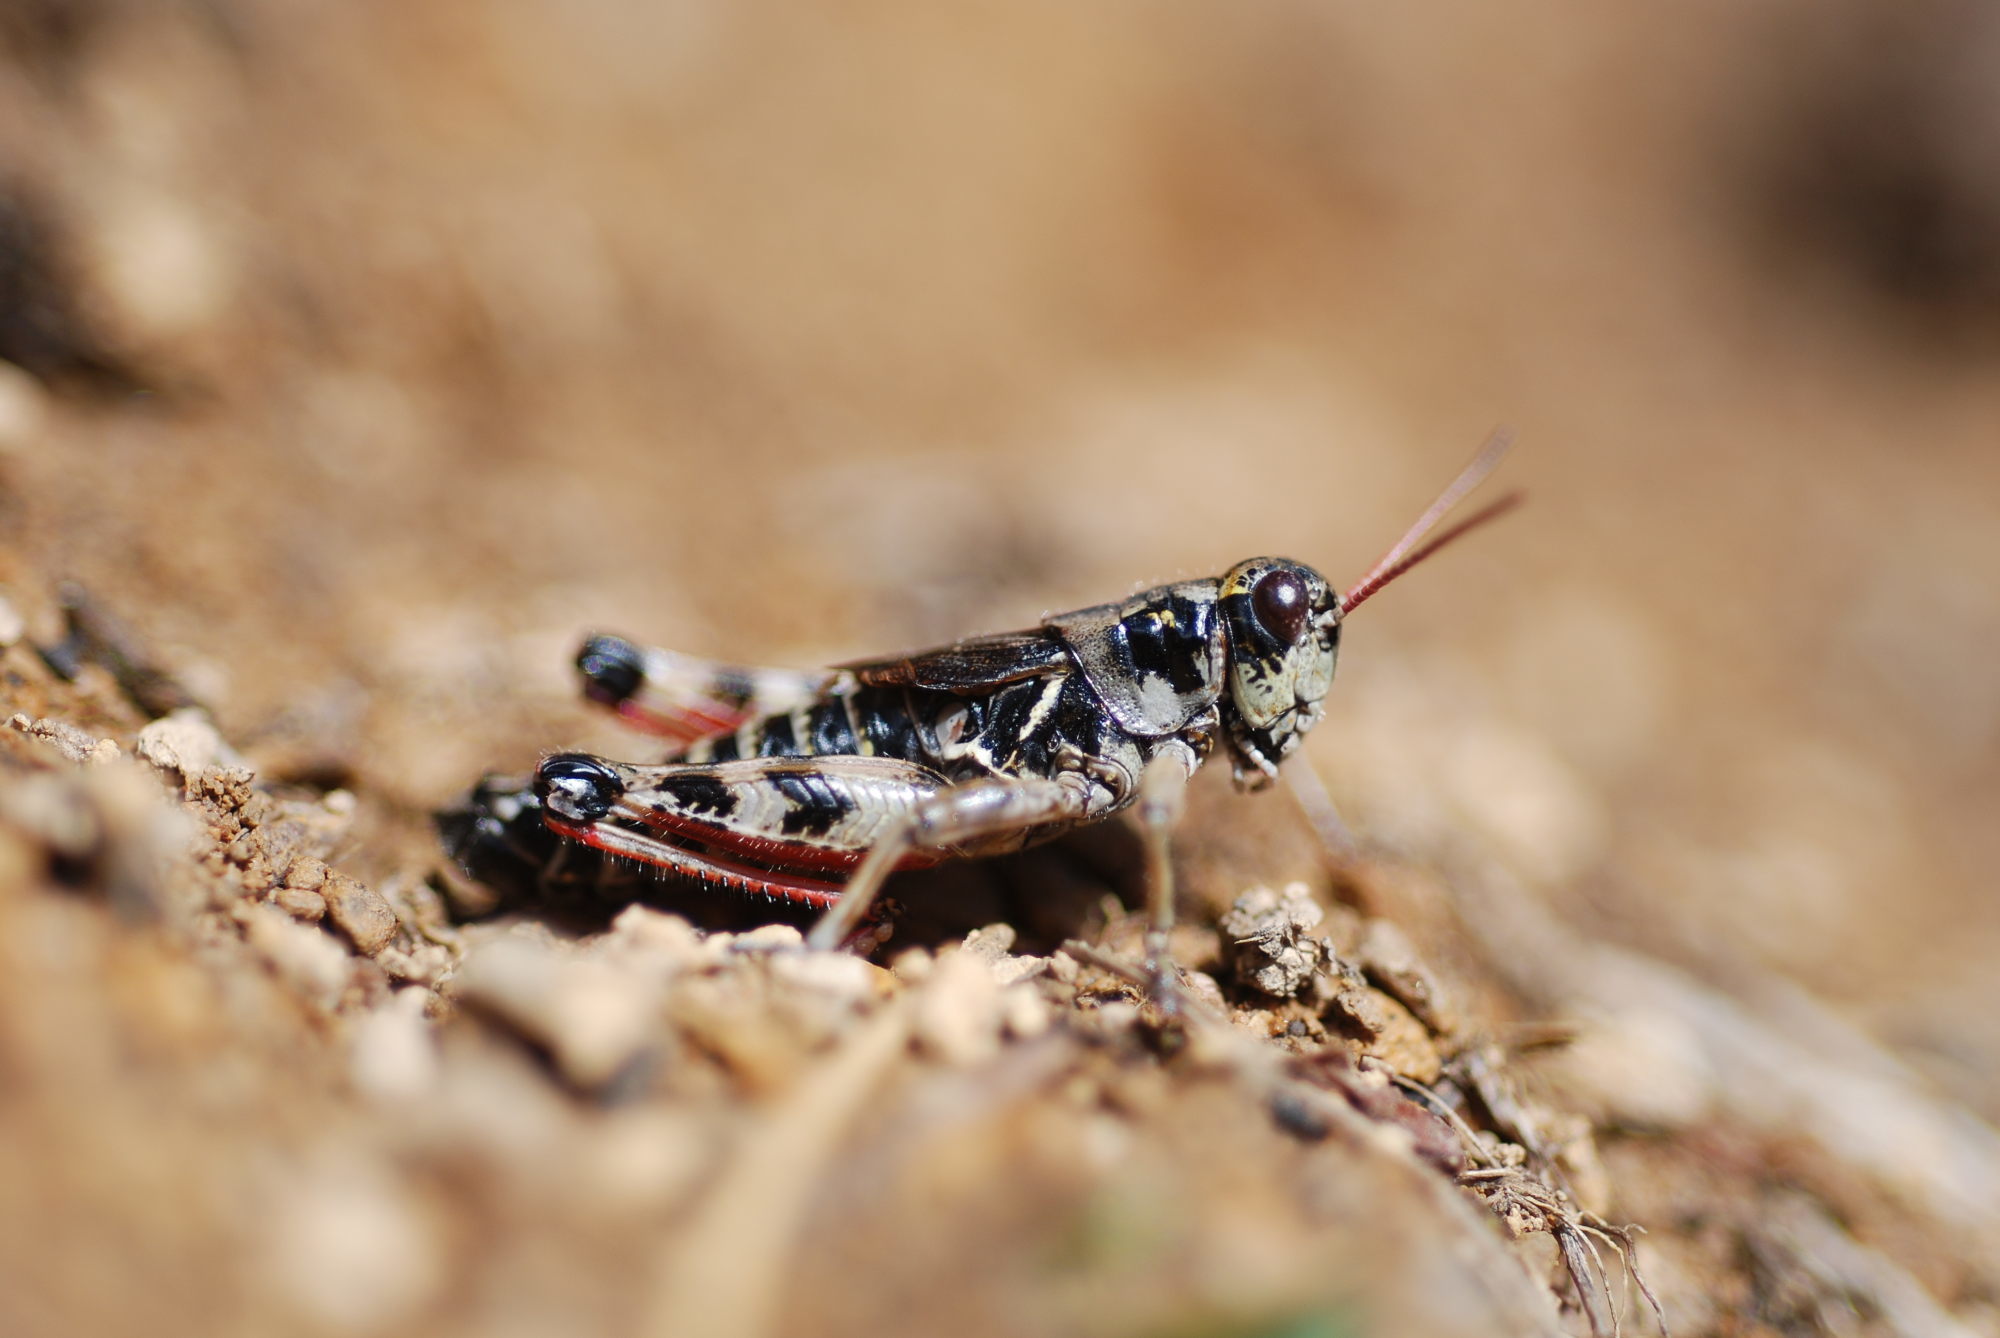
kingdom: Animalia
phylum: Arthropoda
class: Insecta
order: Orthoptera
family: Acrididae
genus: Bohemanella
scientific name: Bohemanella frigida
